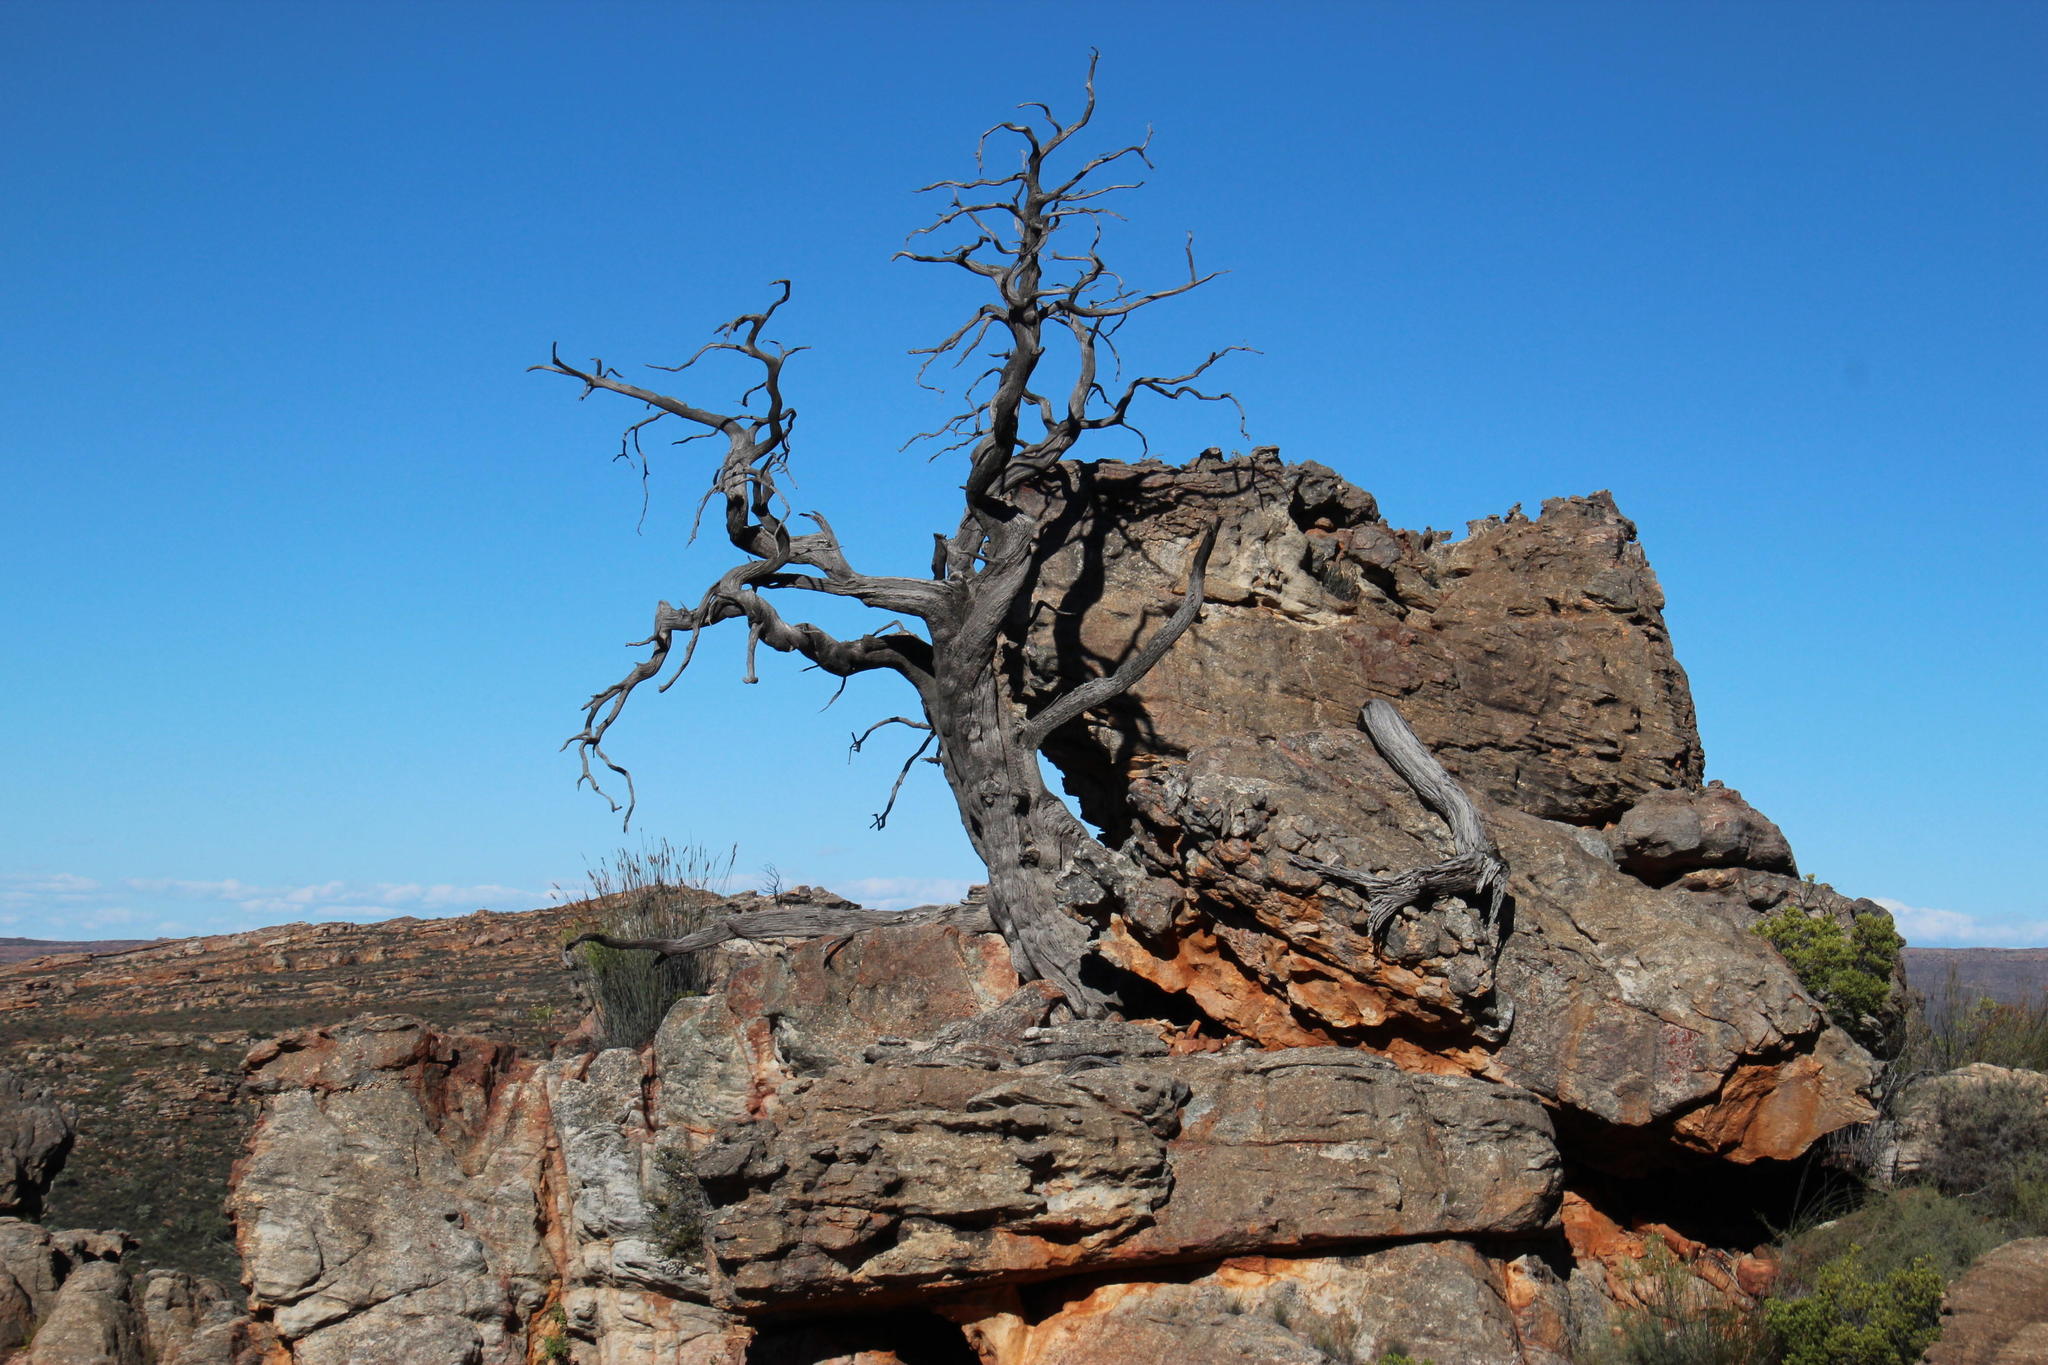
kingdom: Plantae
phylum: Tracheophyta
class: Pinopsida
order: Pinales
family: Cupressaceae
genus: Widdringtonia
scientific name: Widdringtonia nodiflora
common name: Cape cypress
